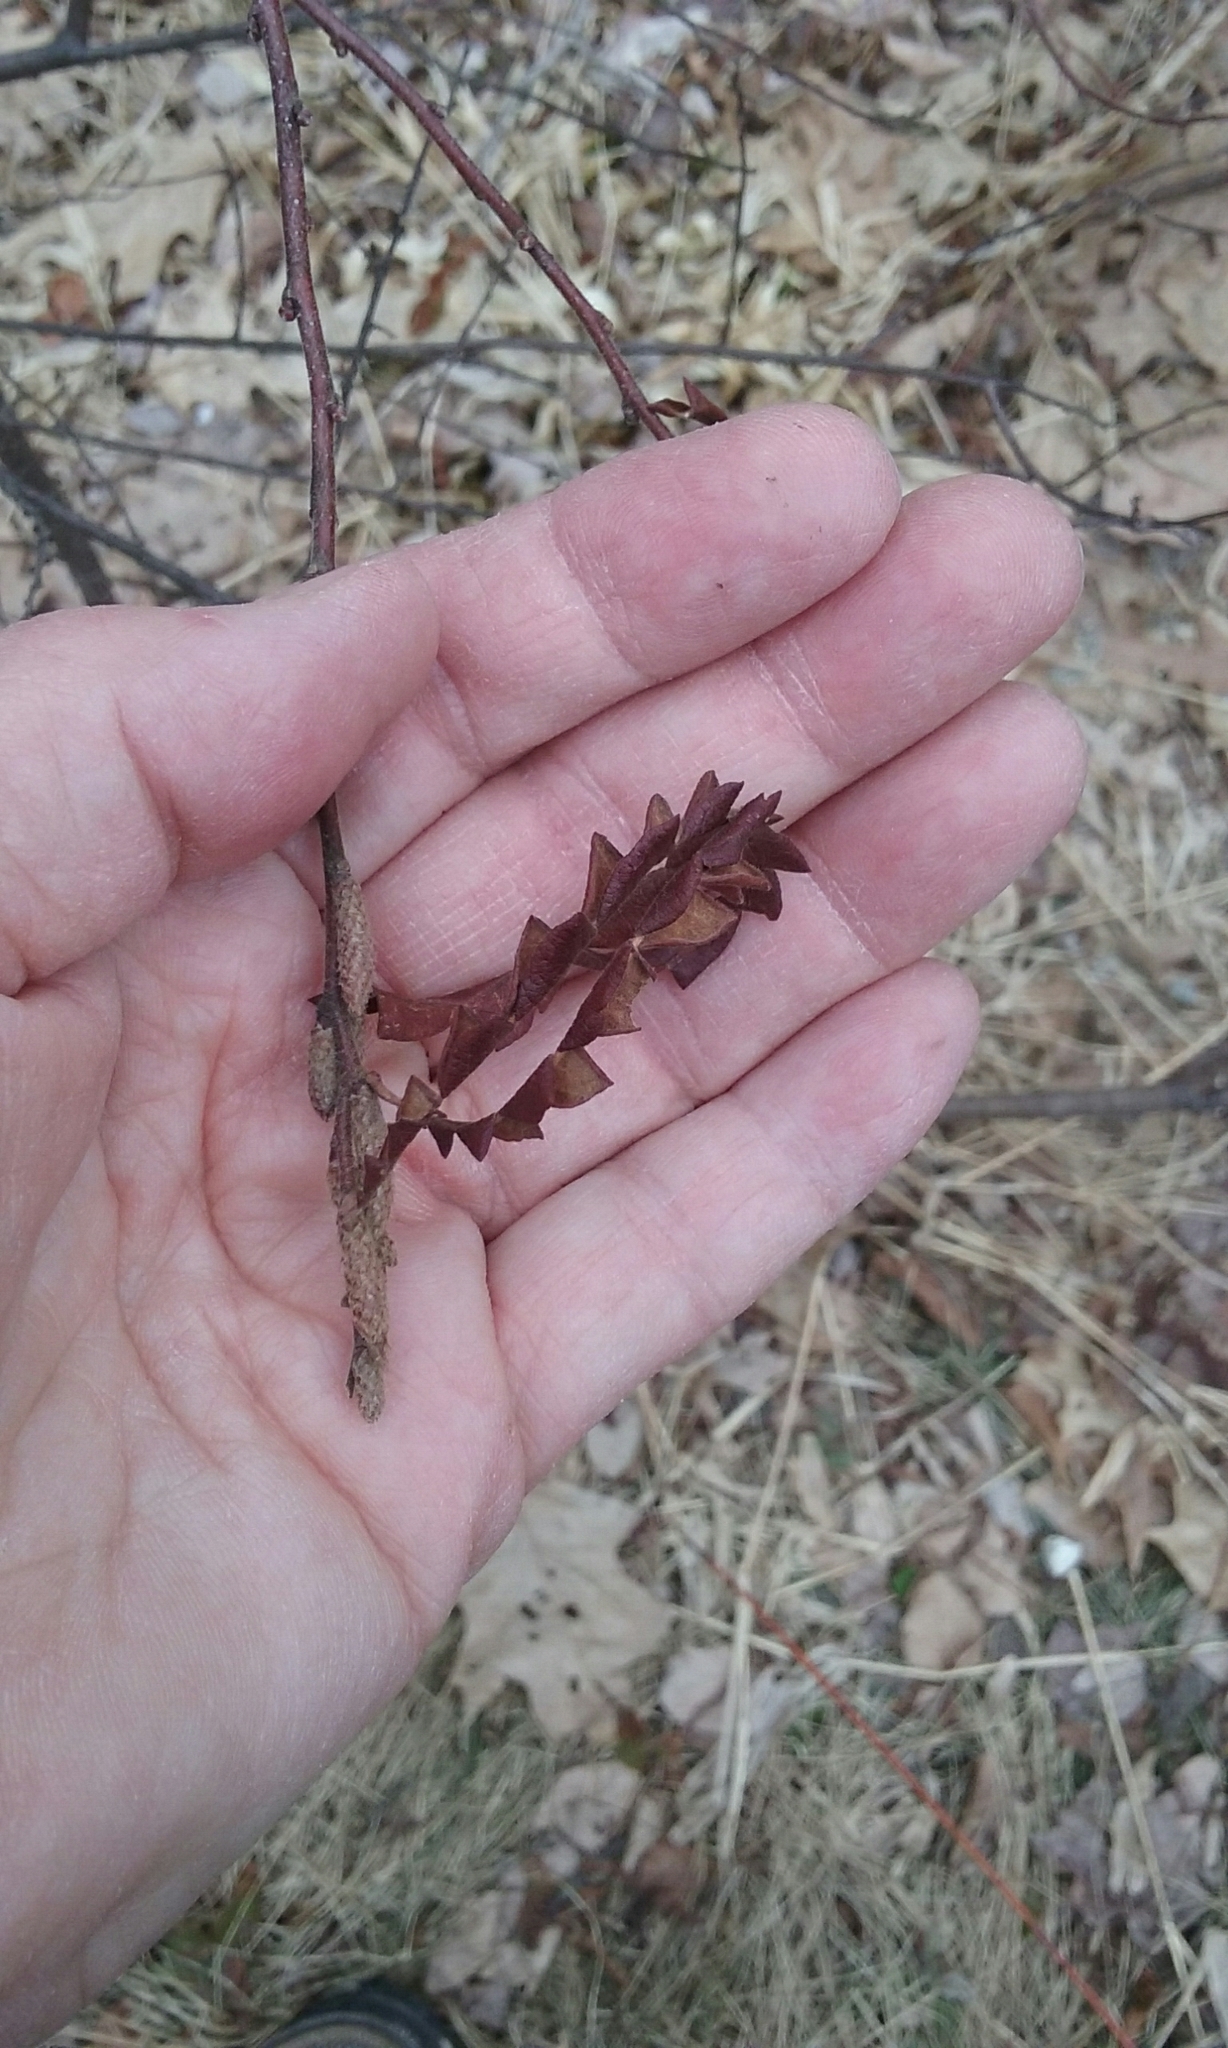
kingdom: Plantae
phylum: Tracheophyta
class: Magnoliopsida
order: Fagales
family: Myricaceae
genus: Comptonia
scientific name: Comptonia peregrina
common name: Sweet-fern
